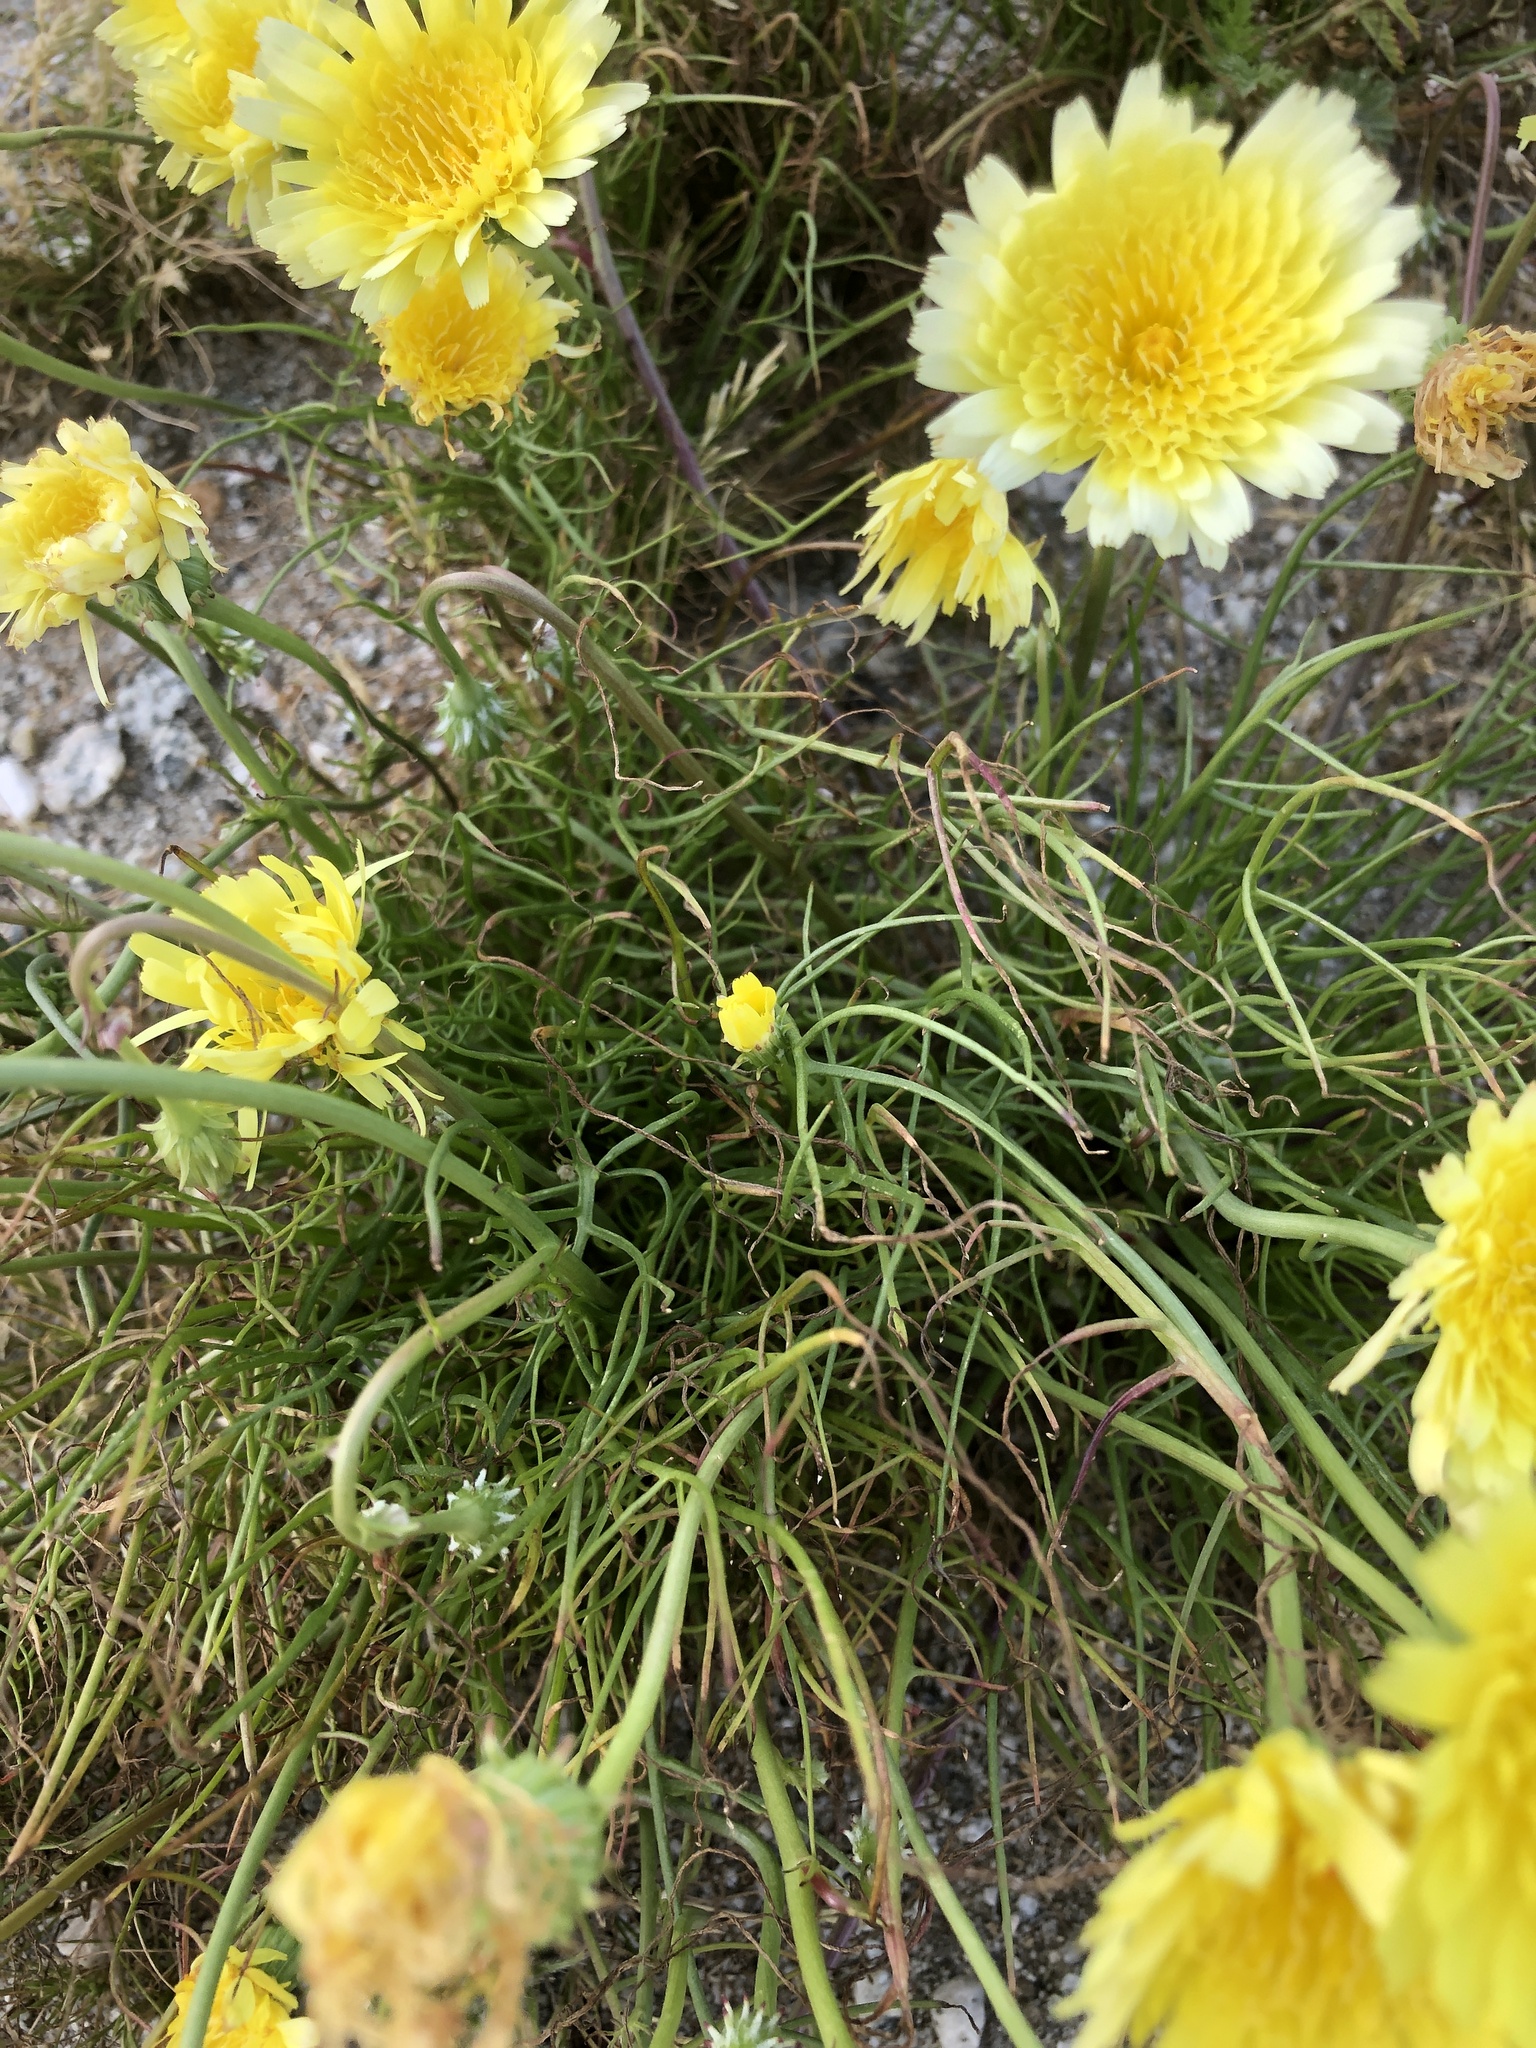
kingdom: Plantae
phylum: Tracheophyta
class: Magnoliopsida
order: Asterales
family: Asteraceae
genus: Malacothrix
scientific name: Malacothrix glabrata
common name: Smooth desert-dandelion
